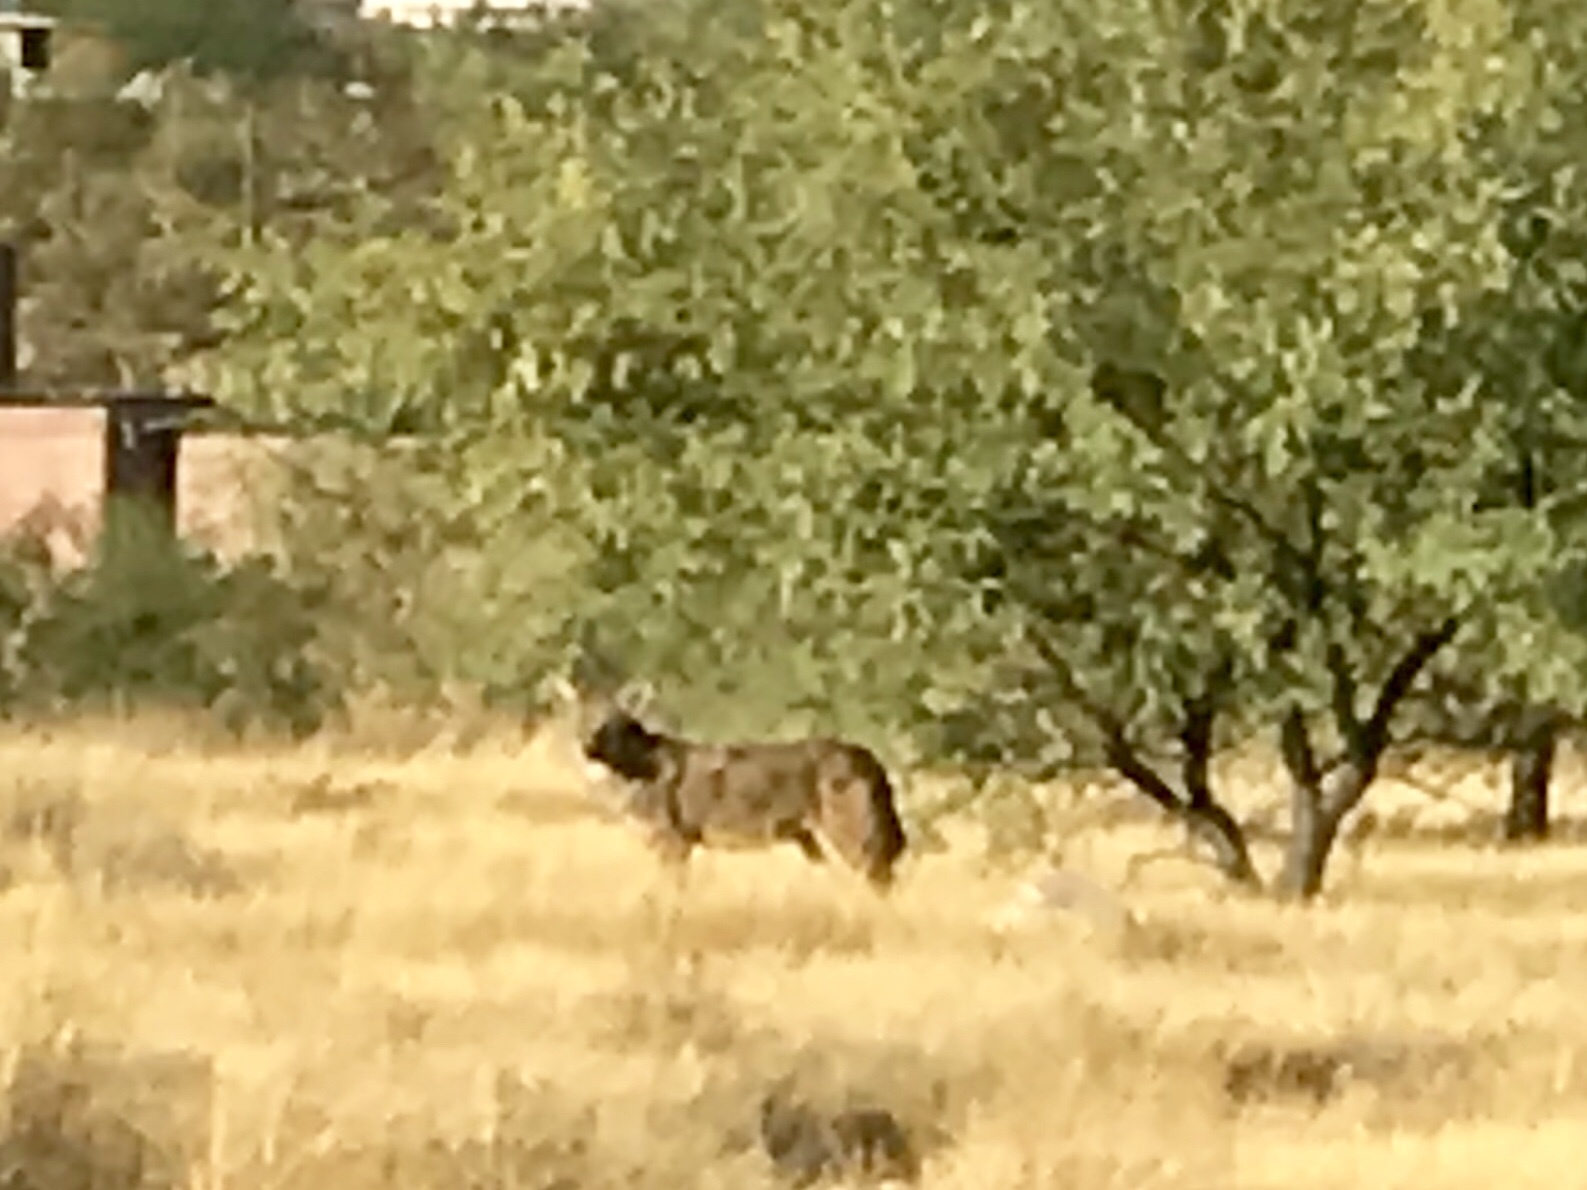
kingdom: Animalia
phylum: Chordata
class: Mammalia
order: Carnivora
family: Canidae
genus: Canis
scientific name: Canis latrans
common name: Coyote
